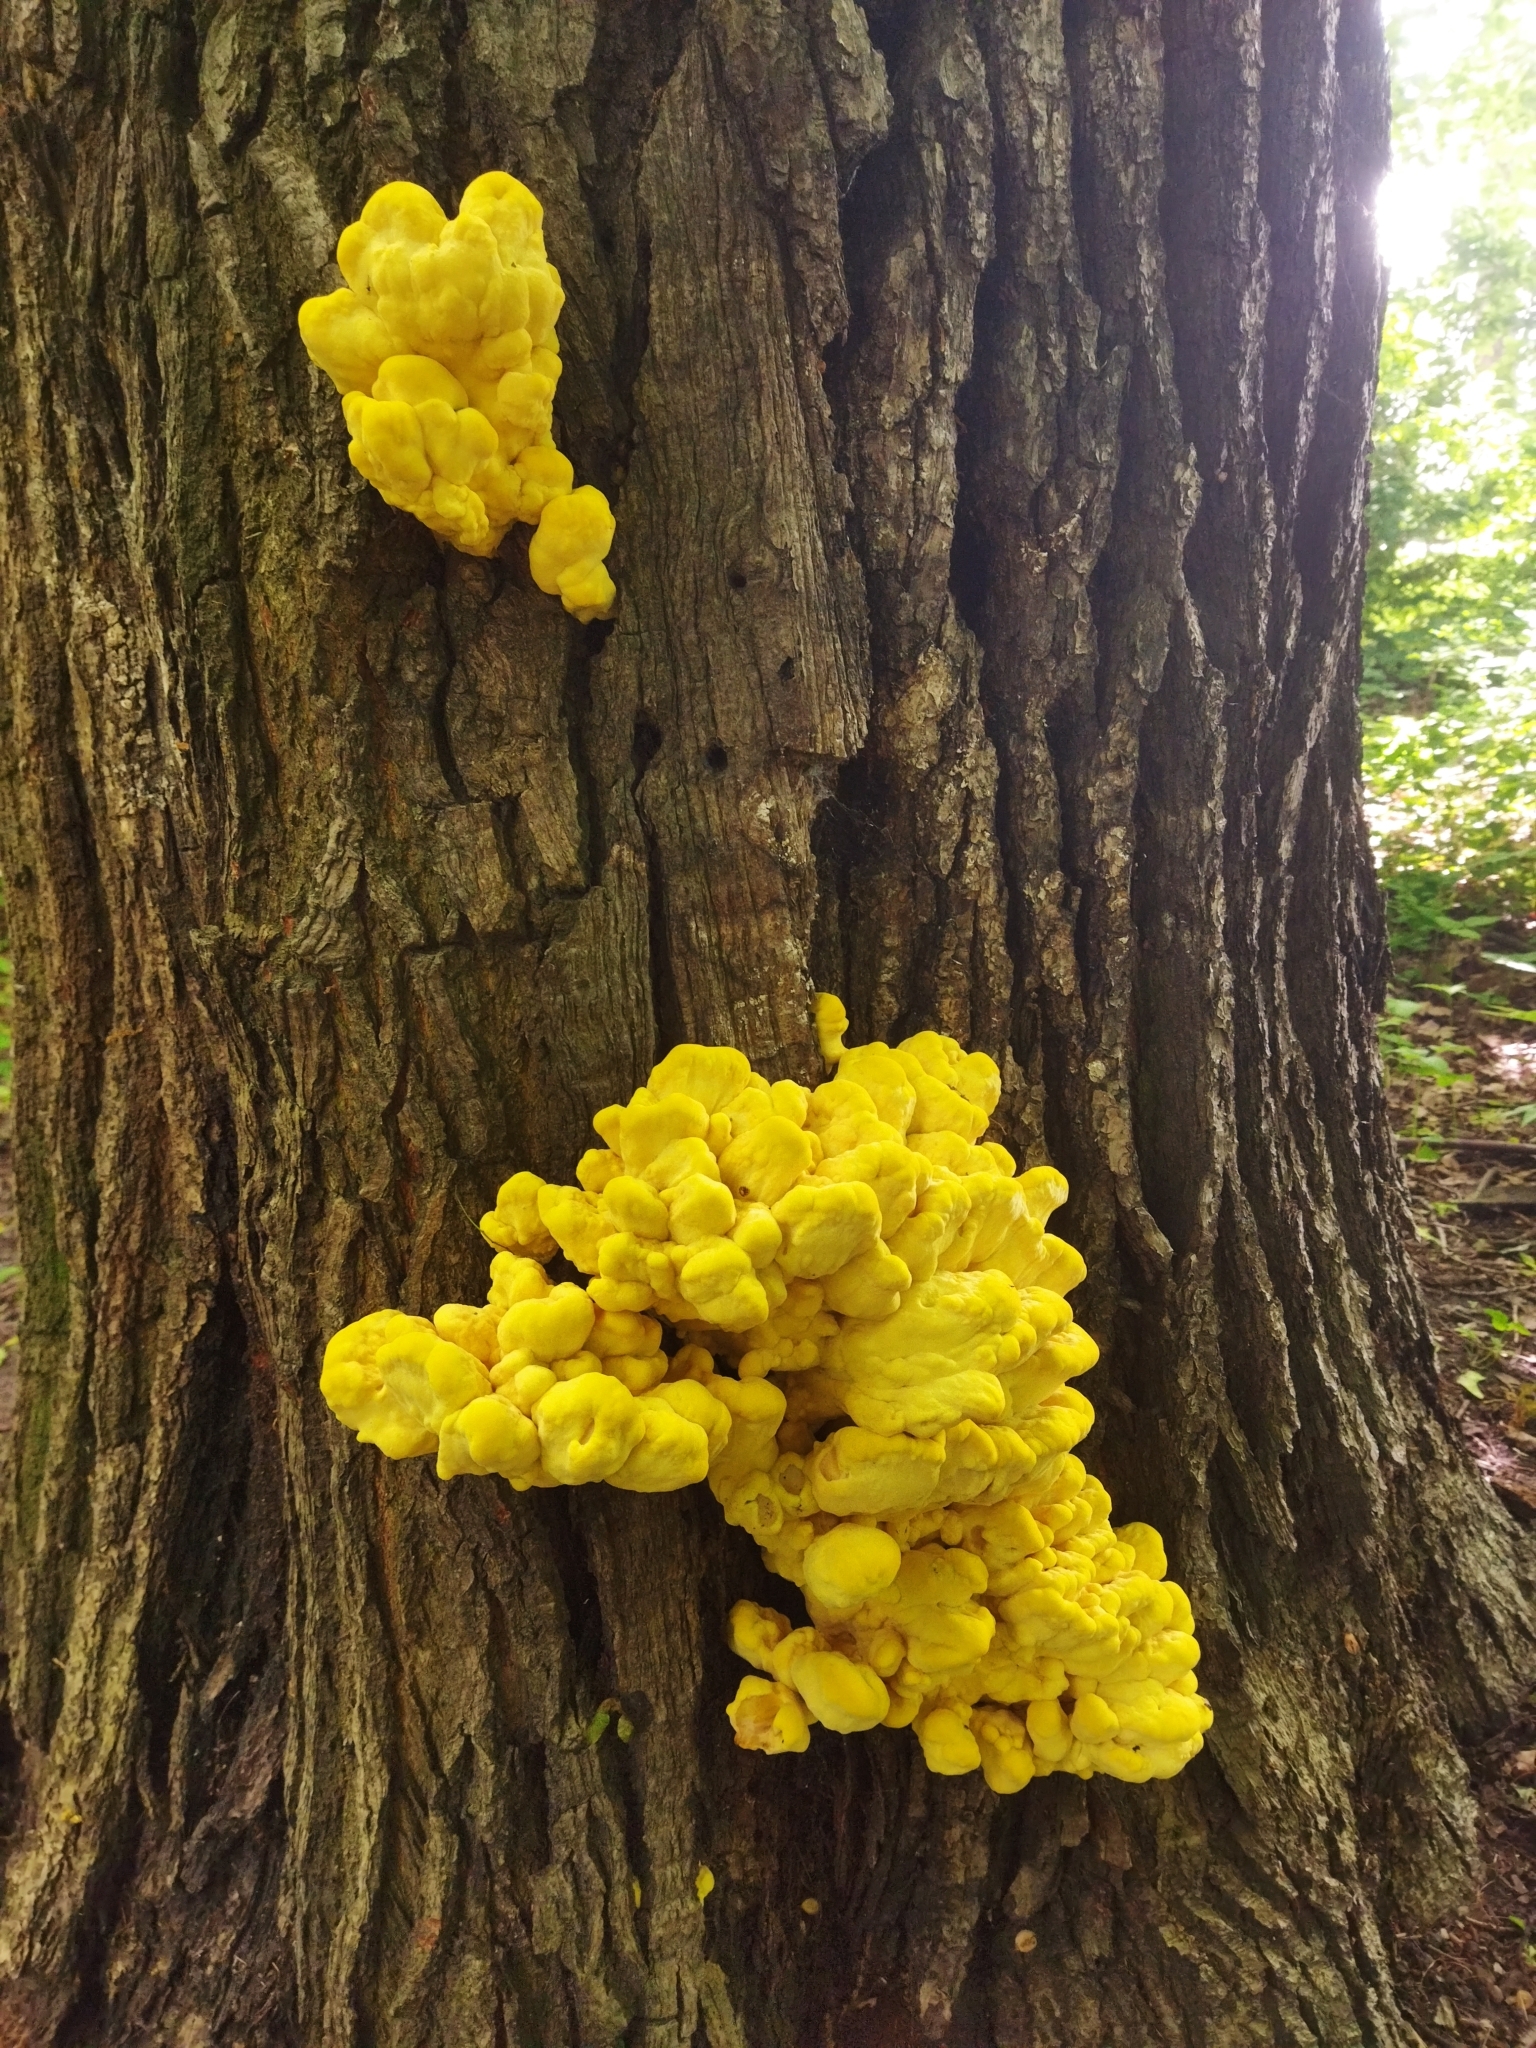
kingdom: Fungi
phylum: Basidiomycota
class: Agaricomycetes
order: Polyporales
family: Laetiporaceae
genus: Laetiporus
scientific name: Laetiporus sulphureus
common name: Chicken of the woods
